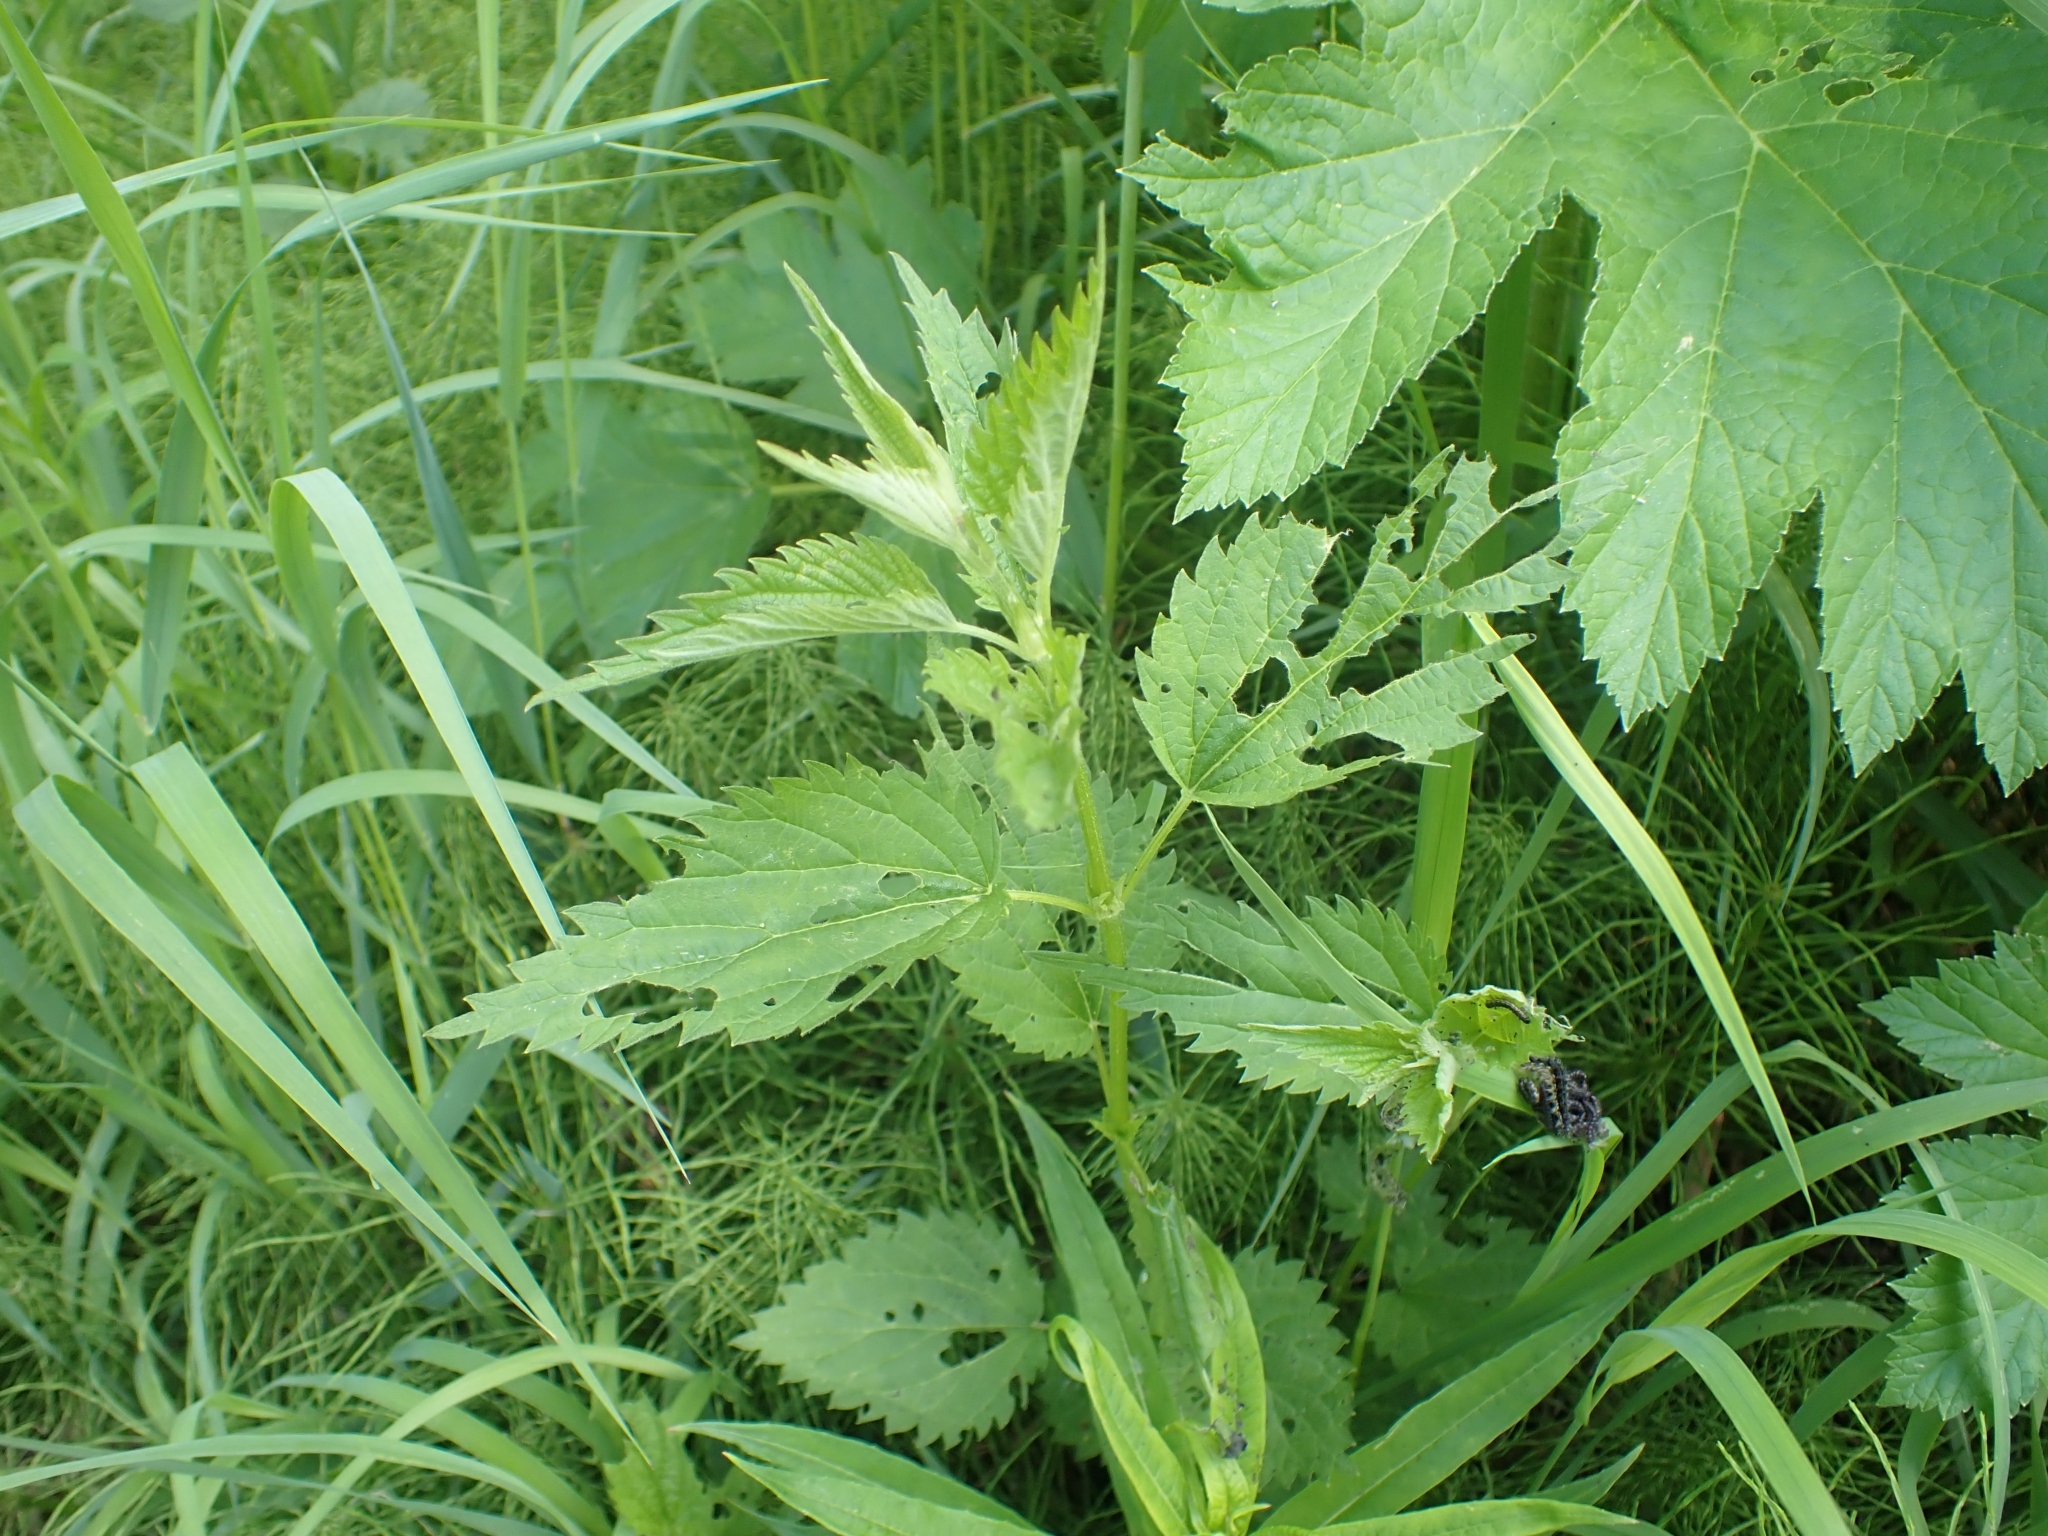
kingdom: Animalia
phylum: Arthropoda
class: Insecta
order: Lepidoptera
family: Nymphalidae
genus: Aglais
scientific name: Aglais milberti
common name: Milbert's tortoiseshell
